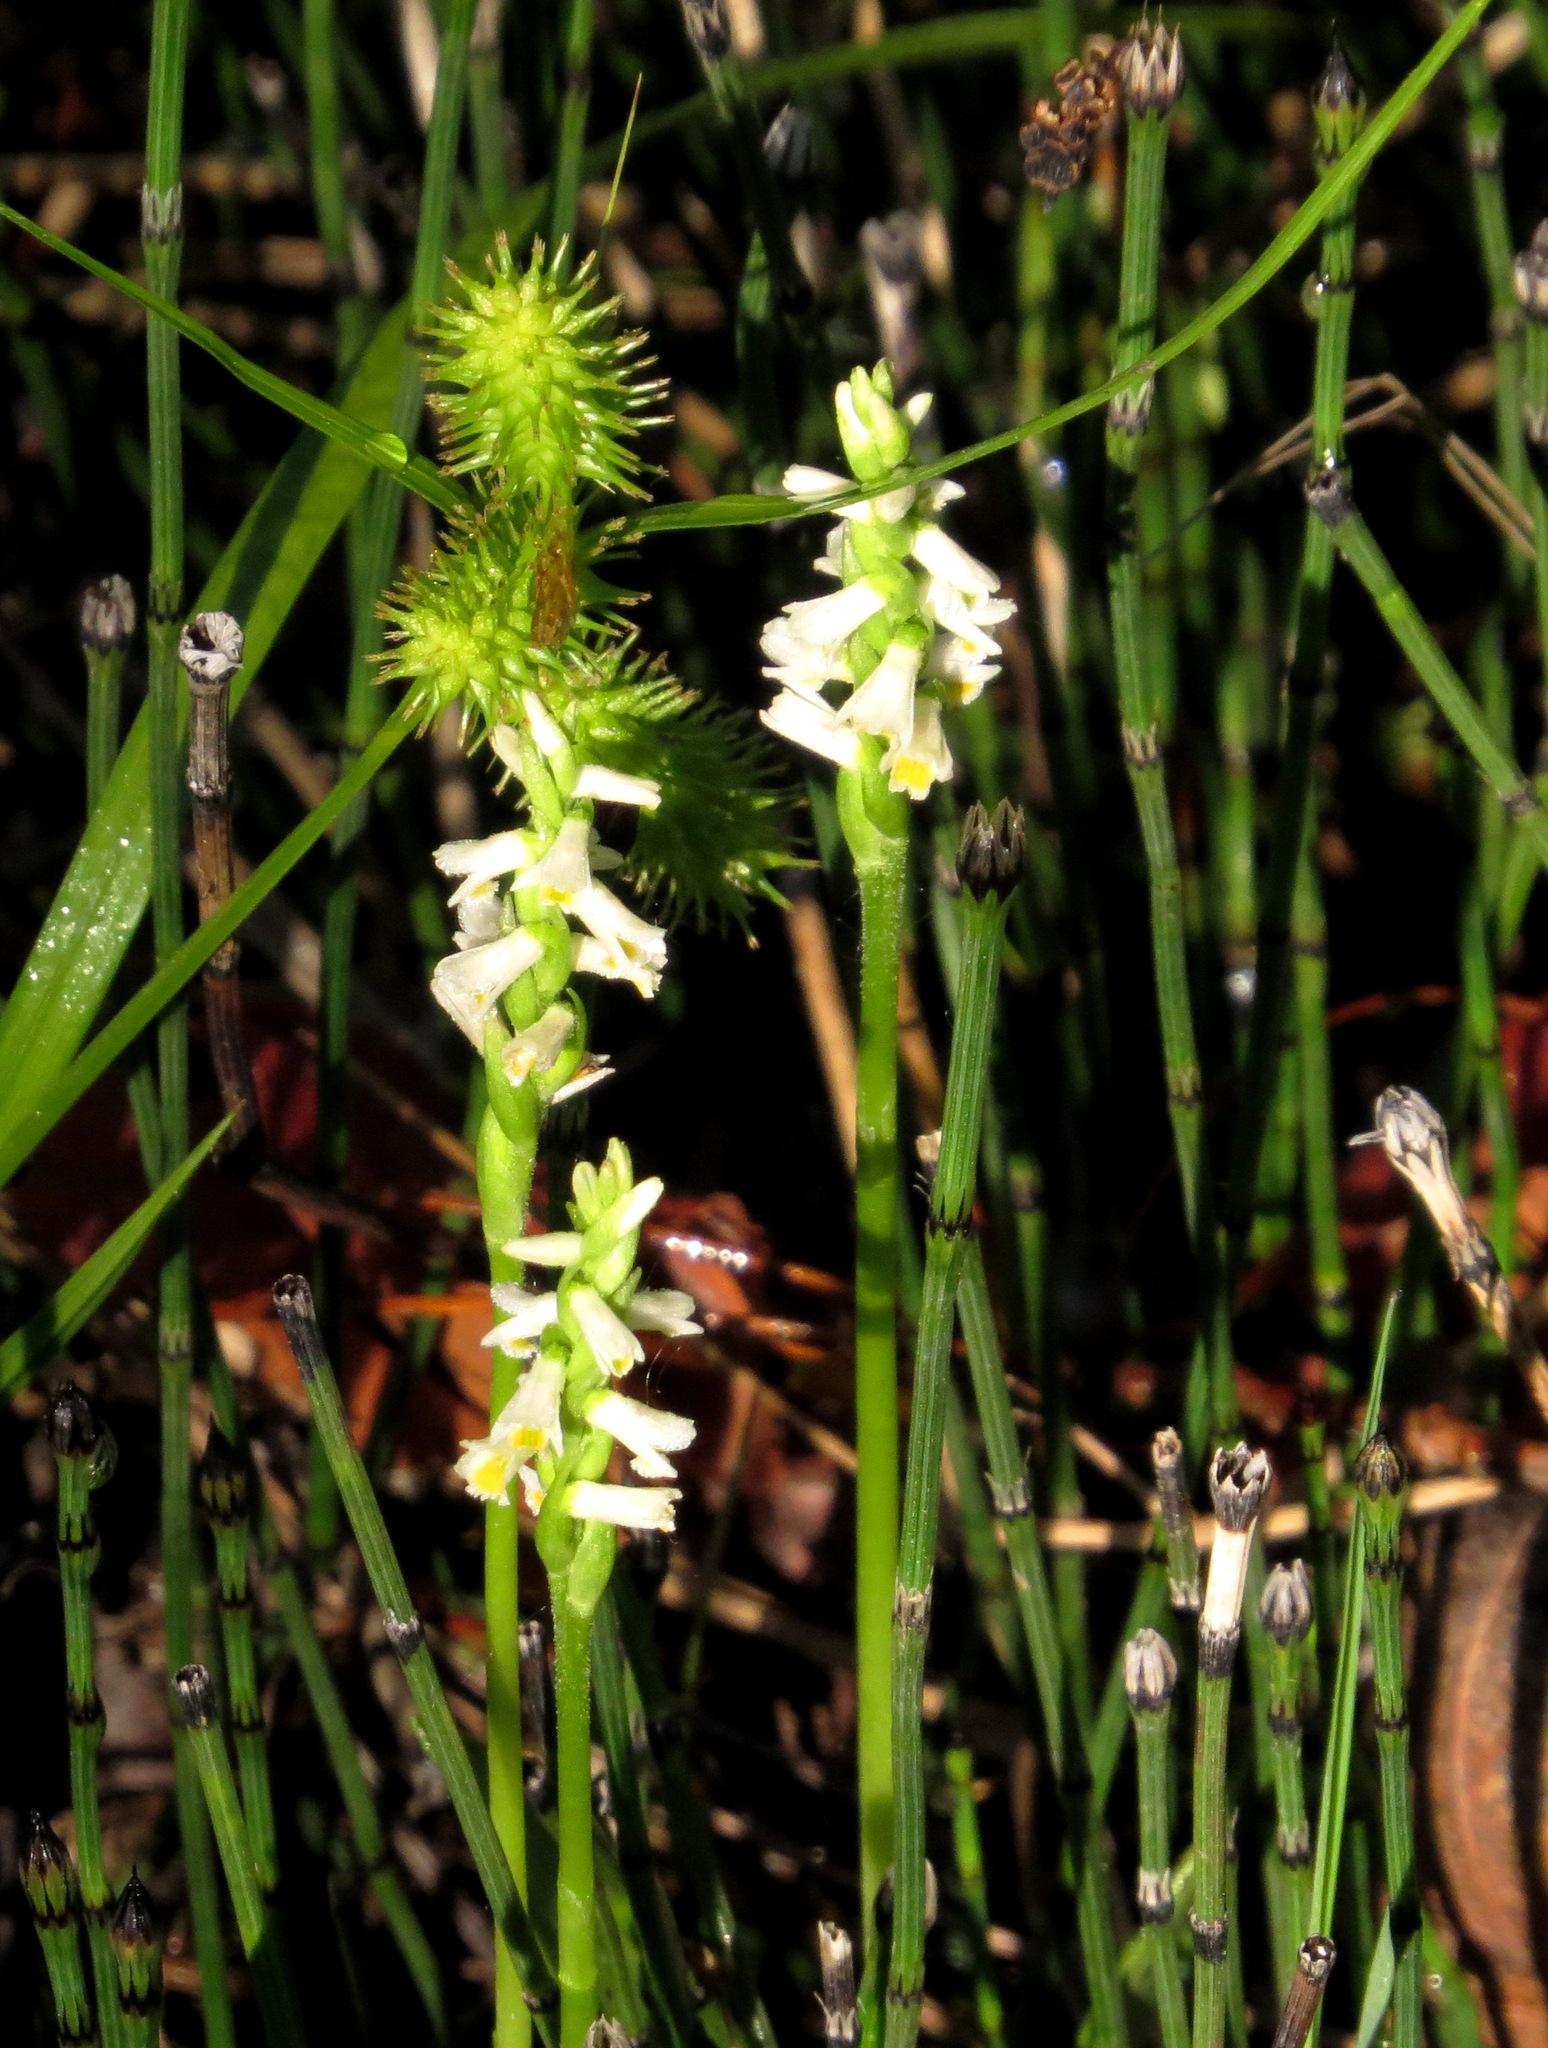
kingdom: Plantae
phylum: Tracheophyta
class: Liliopsida
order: Asparagales
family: Orchidaceae
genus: Spiranthes
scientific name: Spiranthes lucida
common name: Broad-leaved ladies'-tresses
